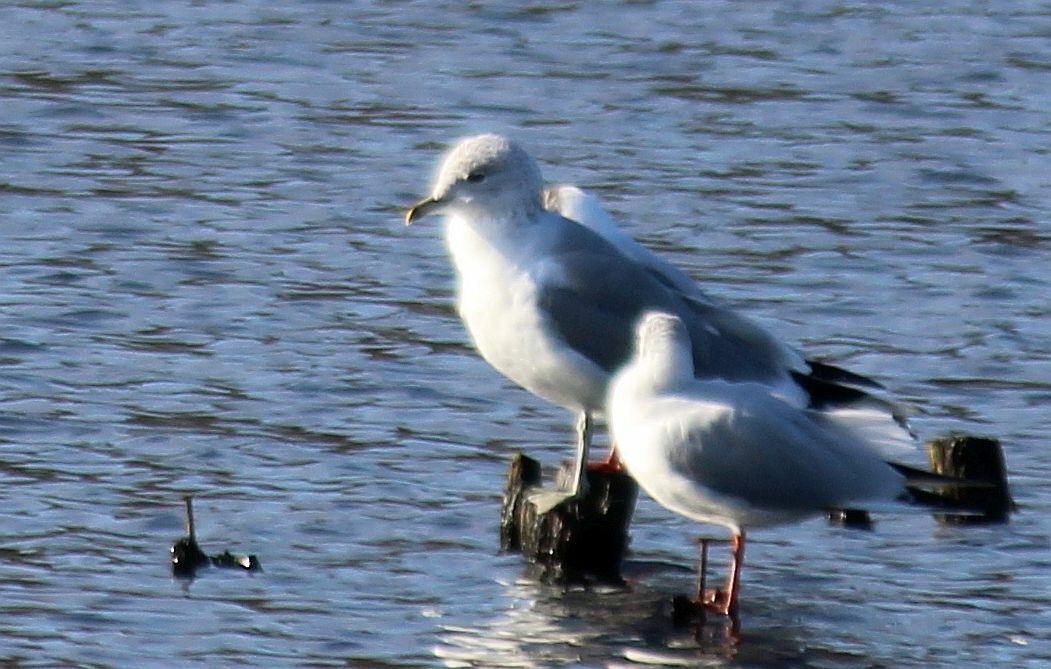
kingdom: Animalia
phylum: Chordata
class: Aves
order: Charadriiformes
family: Laridae
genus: Larus
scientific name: Larus canus
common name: Mew gull
